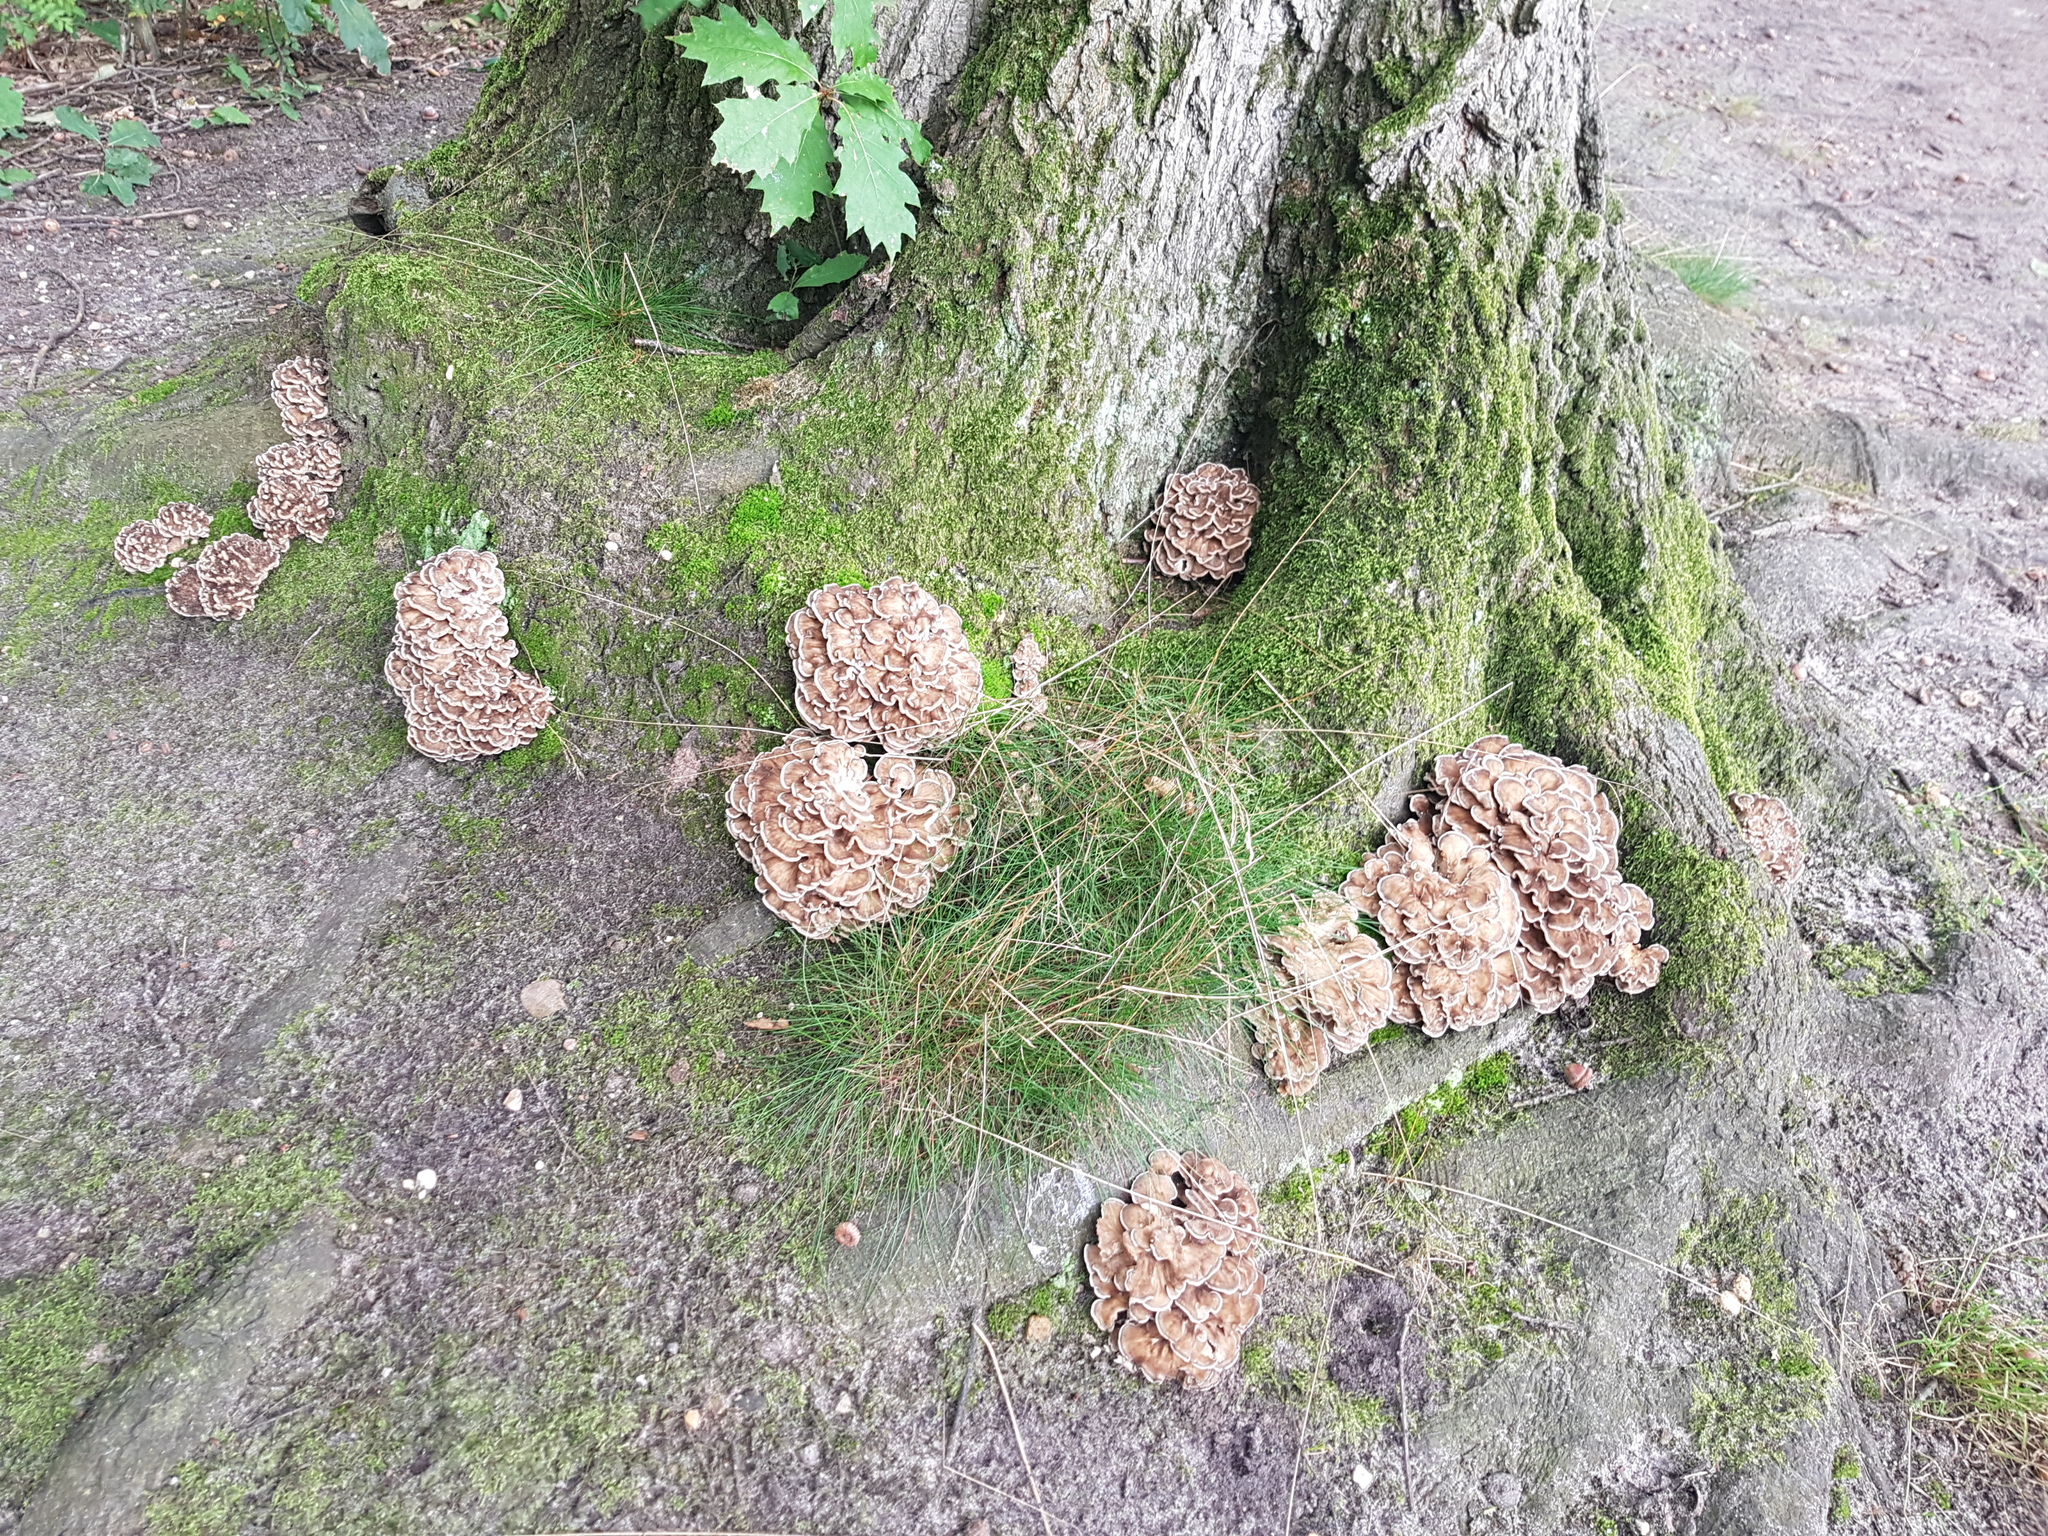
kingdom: Fungi
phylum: Basidiomycota
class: Agaricomycetes
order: Polyporales
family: Grifolaceae
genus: Grifola
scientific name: Grifola frondosa
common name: Hen of the woods
